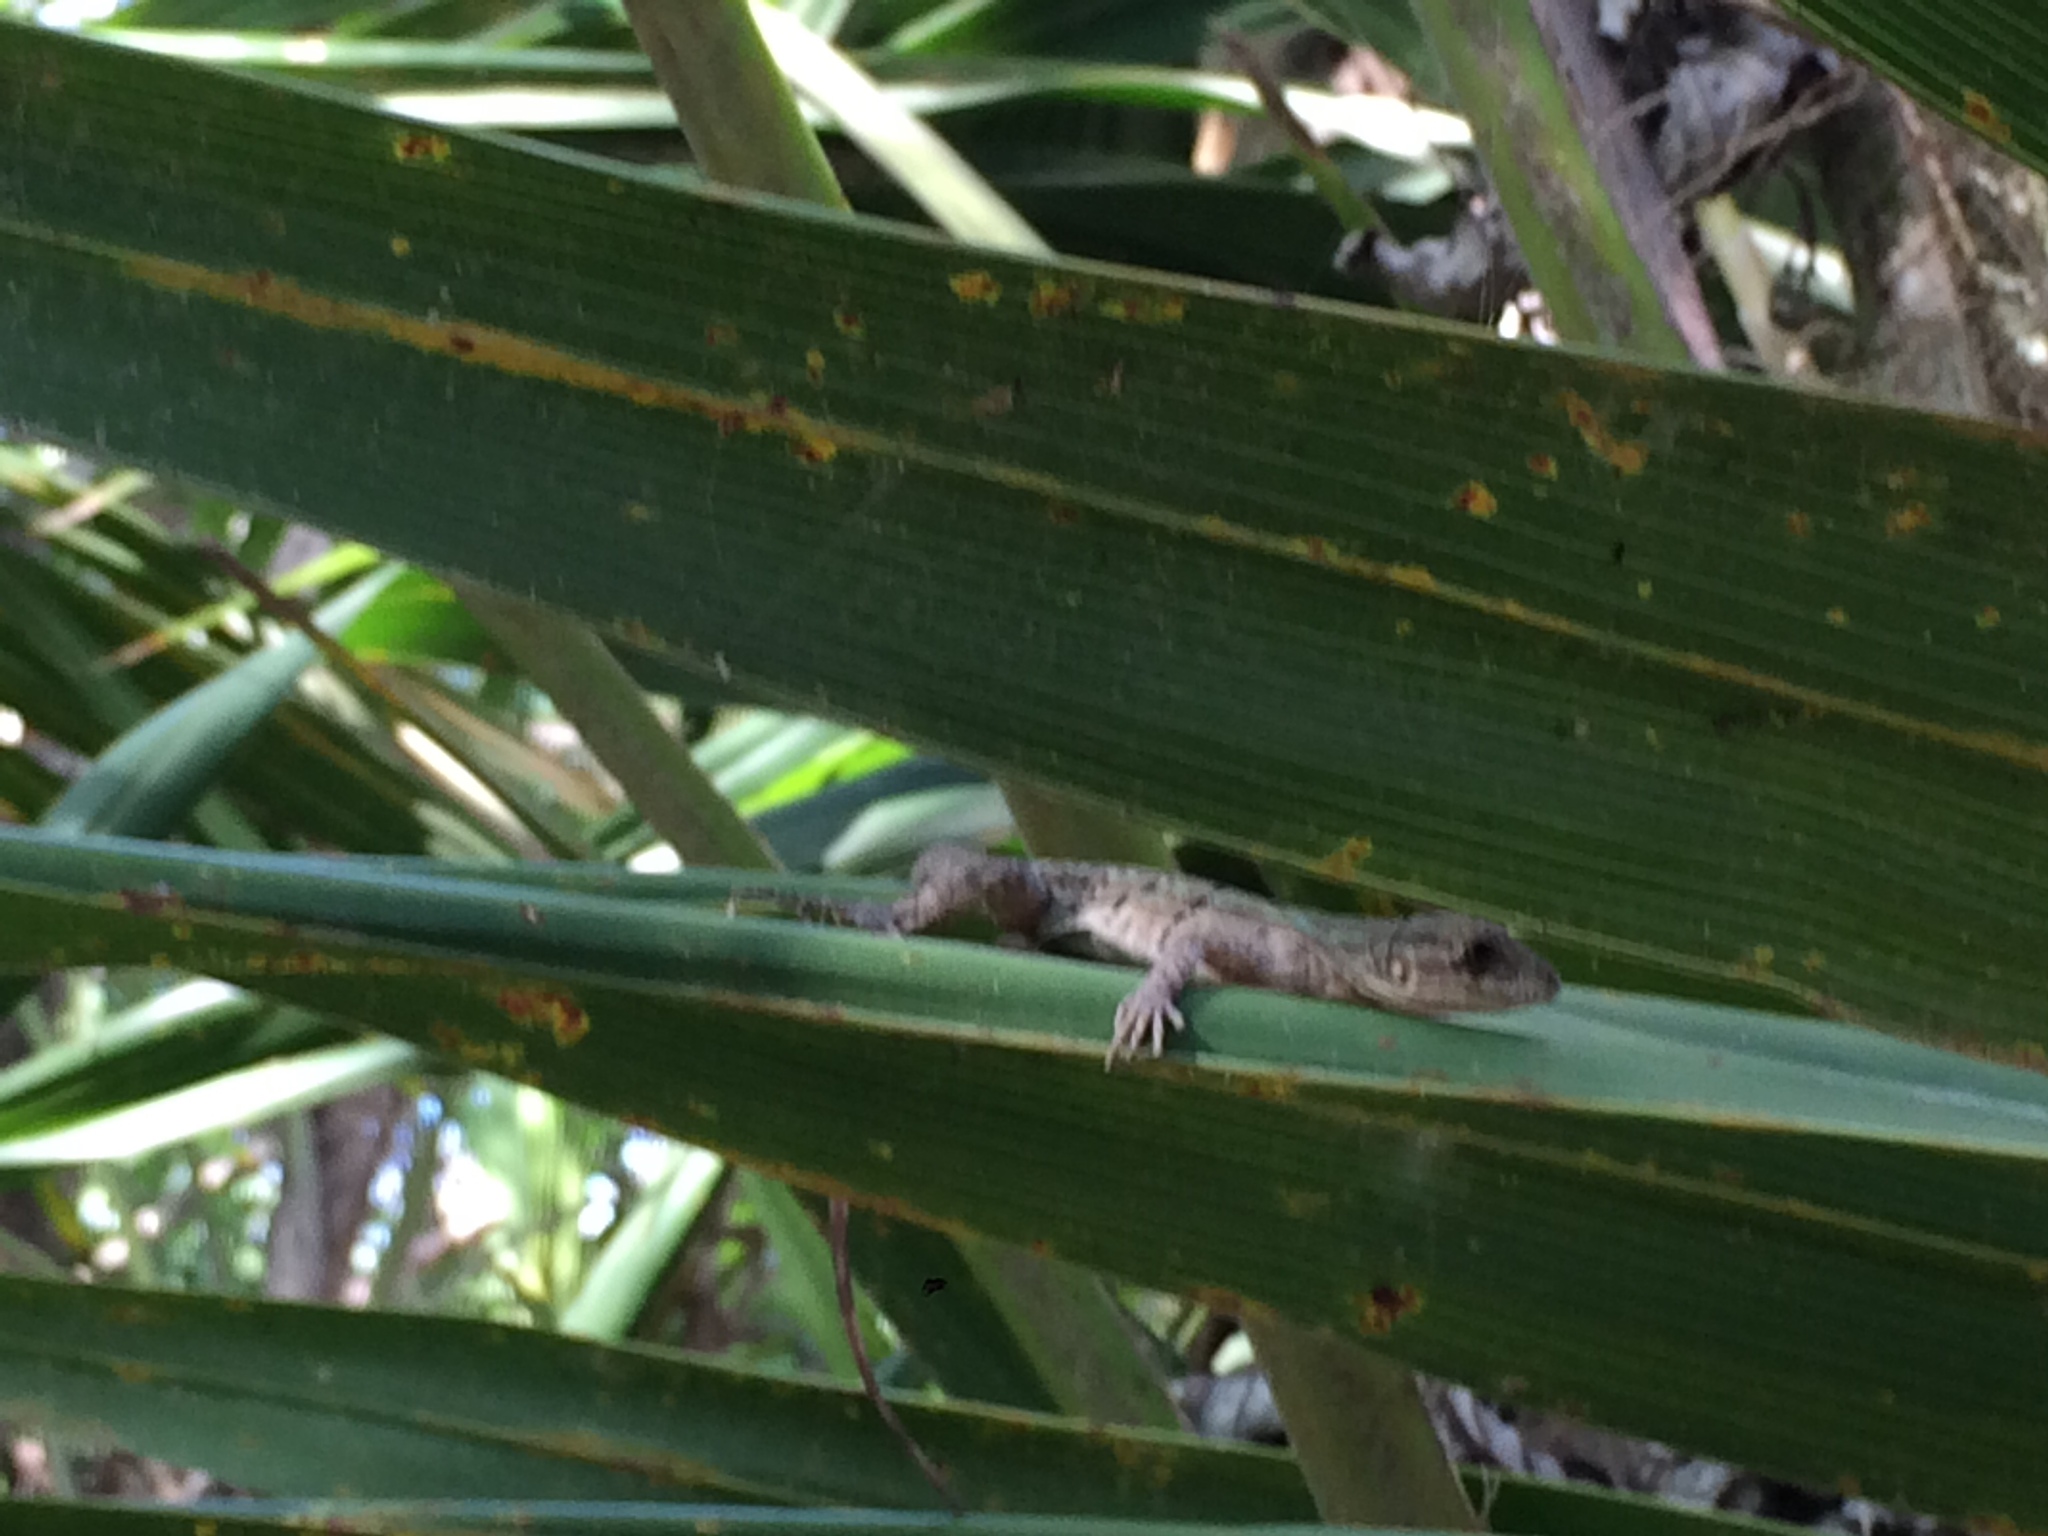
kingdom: Animalia
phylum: Chordata
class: Squamata
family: Iguanidae
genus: Ctenosaura
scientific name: Ctenosaura similis
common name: Black spiny-tailed iguana
